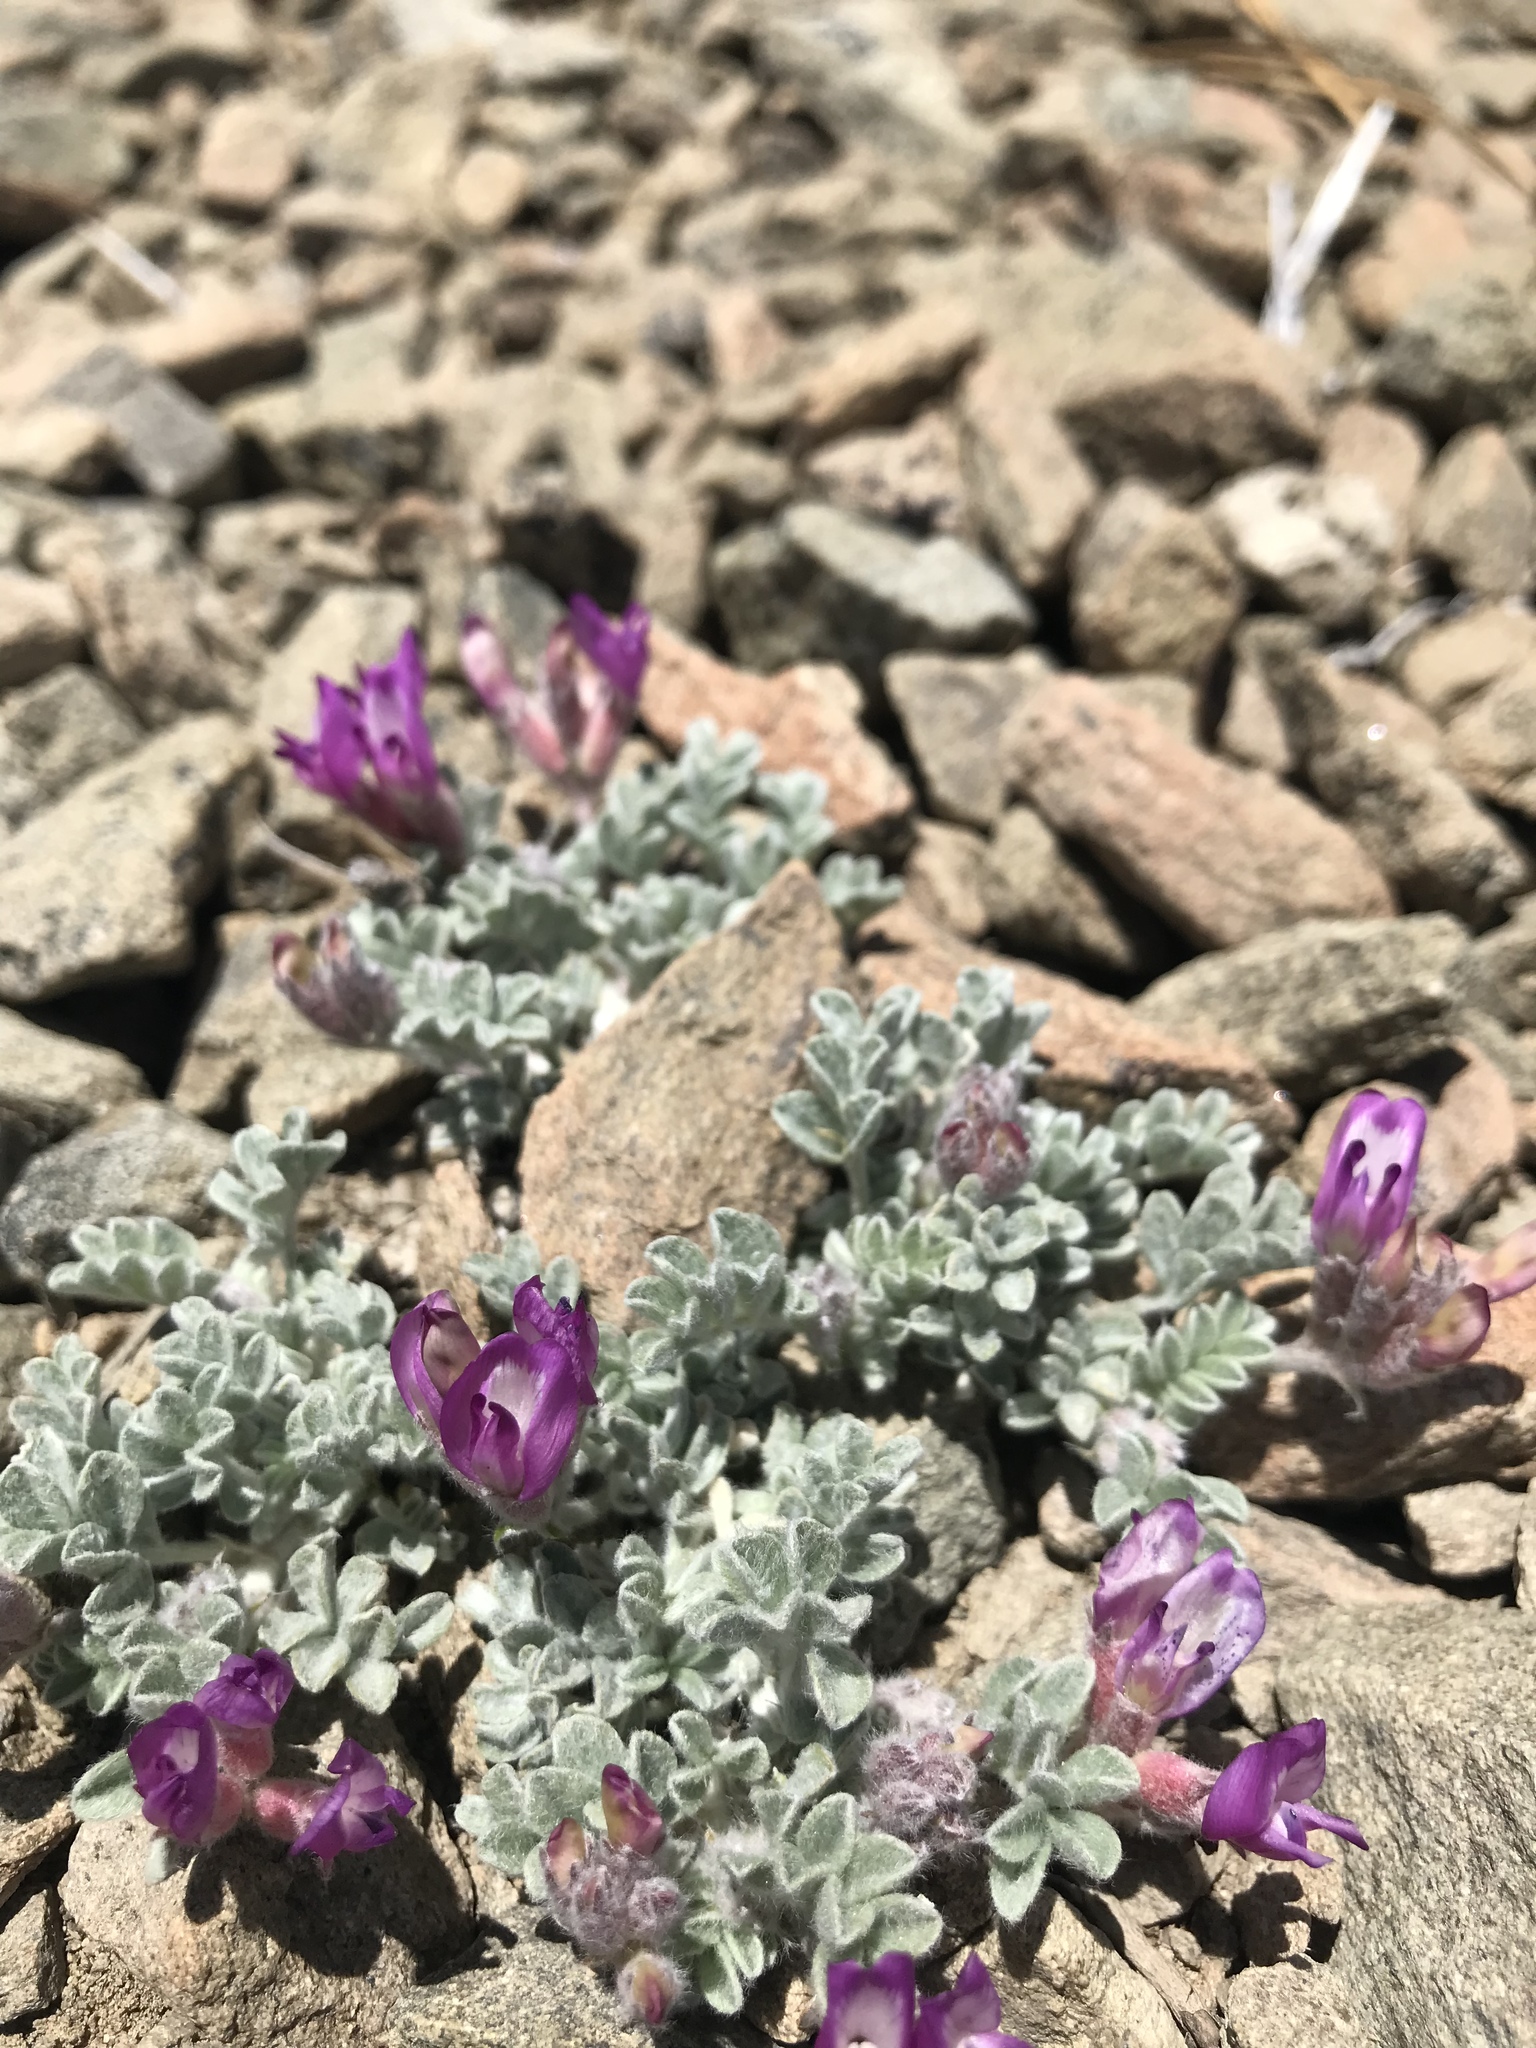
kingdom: Plantae
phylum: Tracheophyta
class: Magnoliopsida
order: Fabales
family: Fabaceae
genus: Astragalus
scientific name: Astragalus purshii
